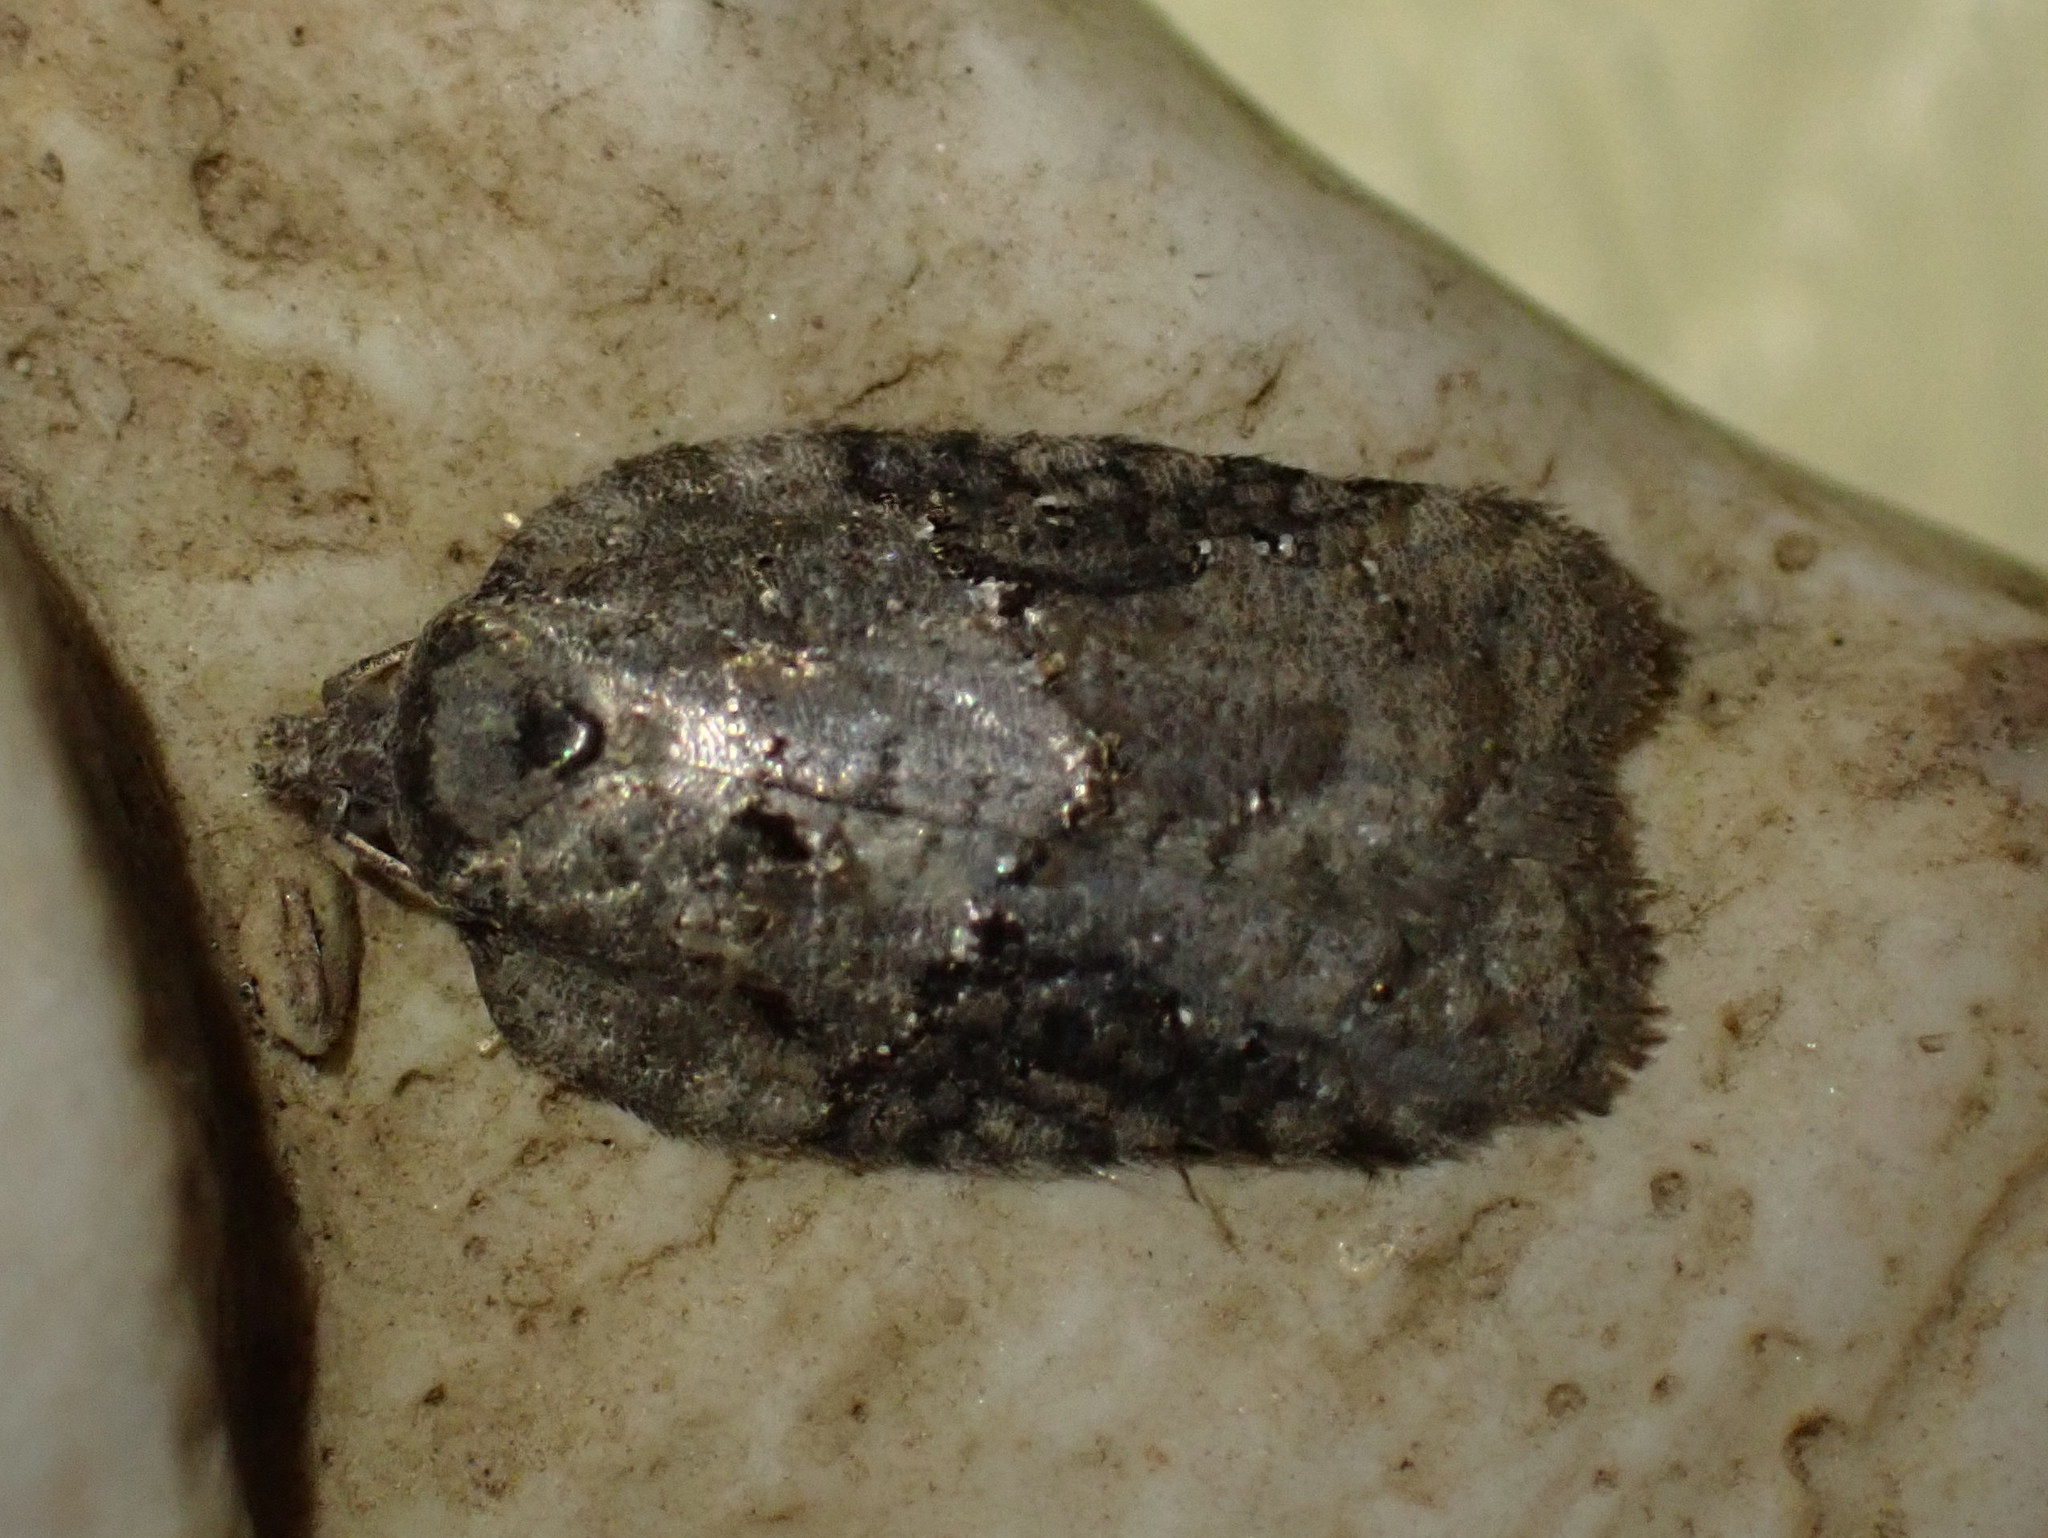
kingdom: Animalia
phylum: Arthropoda
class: Insecta
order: Lepidoptera
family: Tortricidae
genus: Acleris
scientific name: Acleris chalybeana
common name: Lesser maple leafroller
